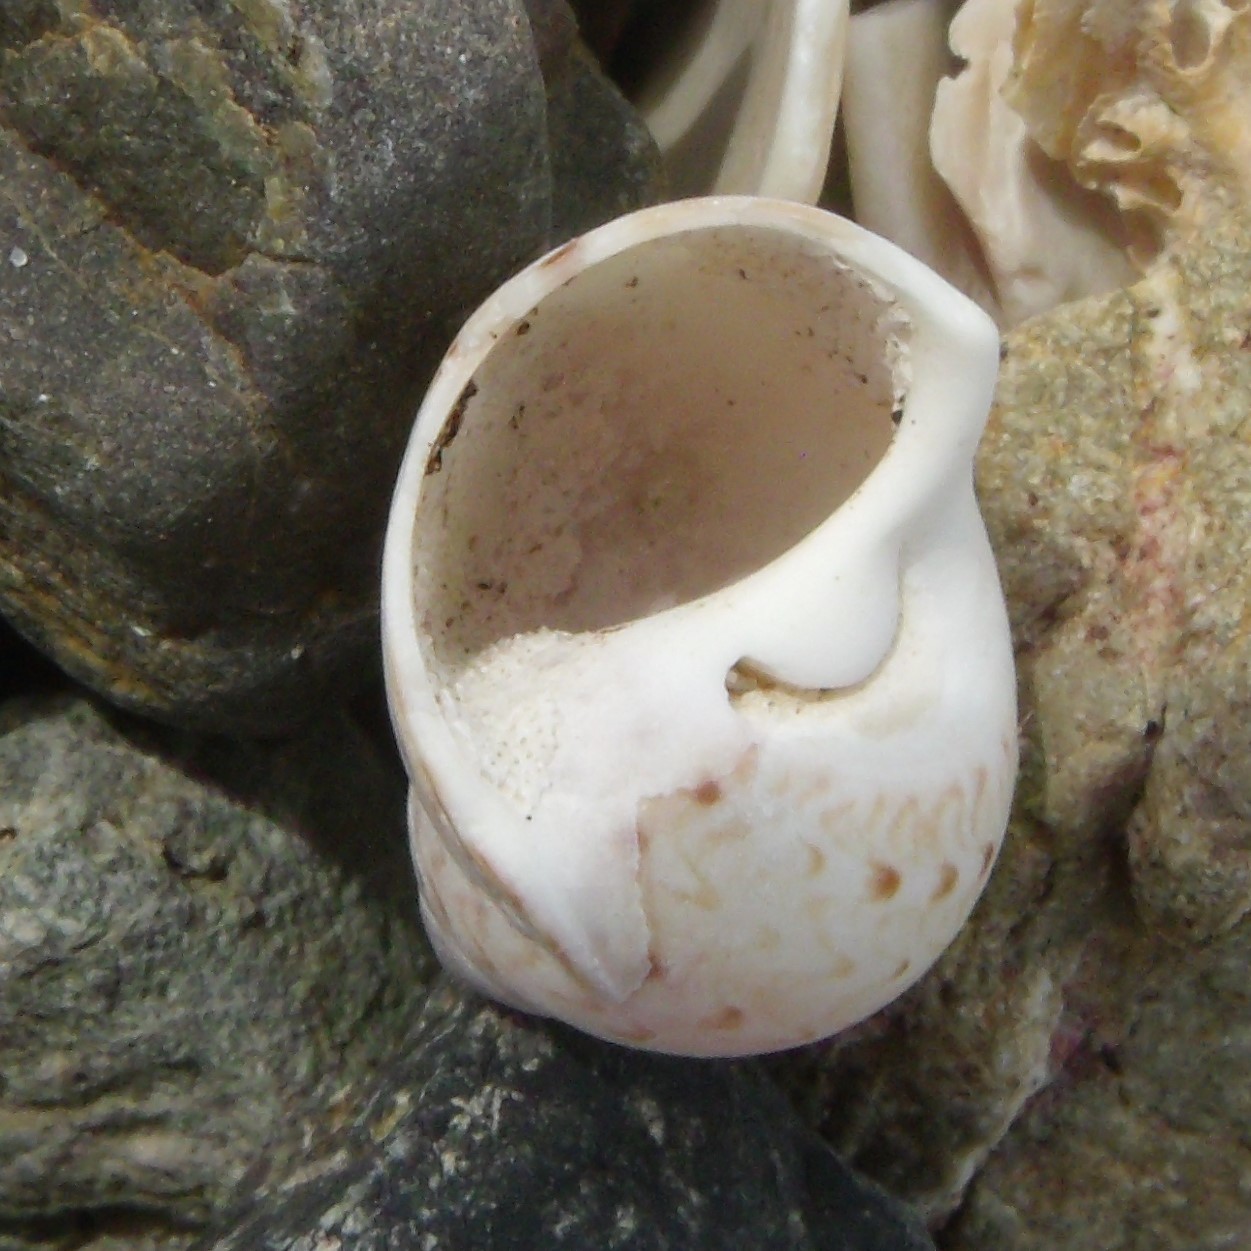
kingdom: Animalia
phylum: Mollusca
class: Gastropoda
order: Littorinimorpha
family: Naticidae
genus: Tanea
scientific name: Tanea zelandica
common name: New zealand moonsnail
